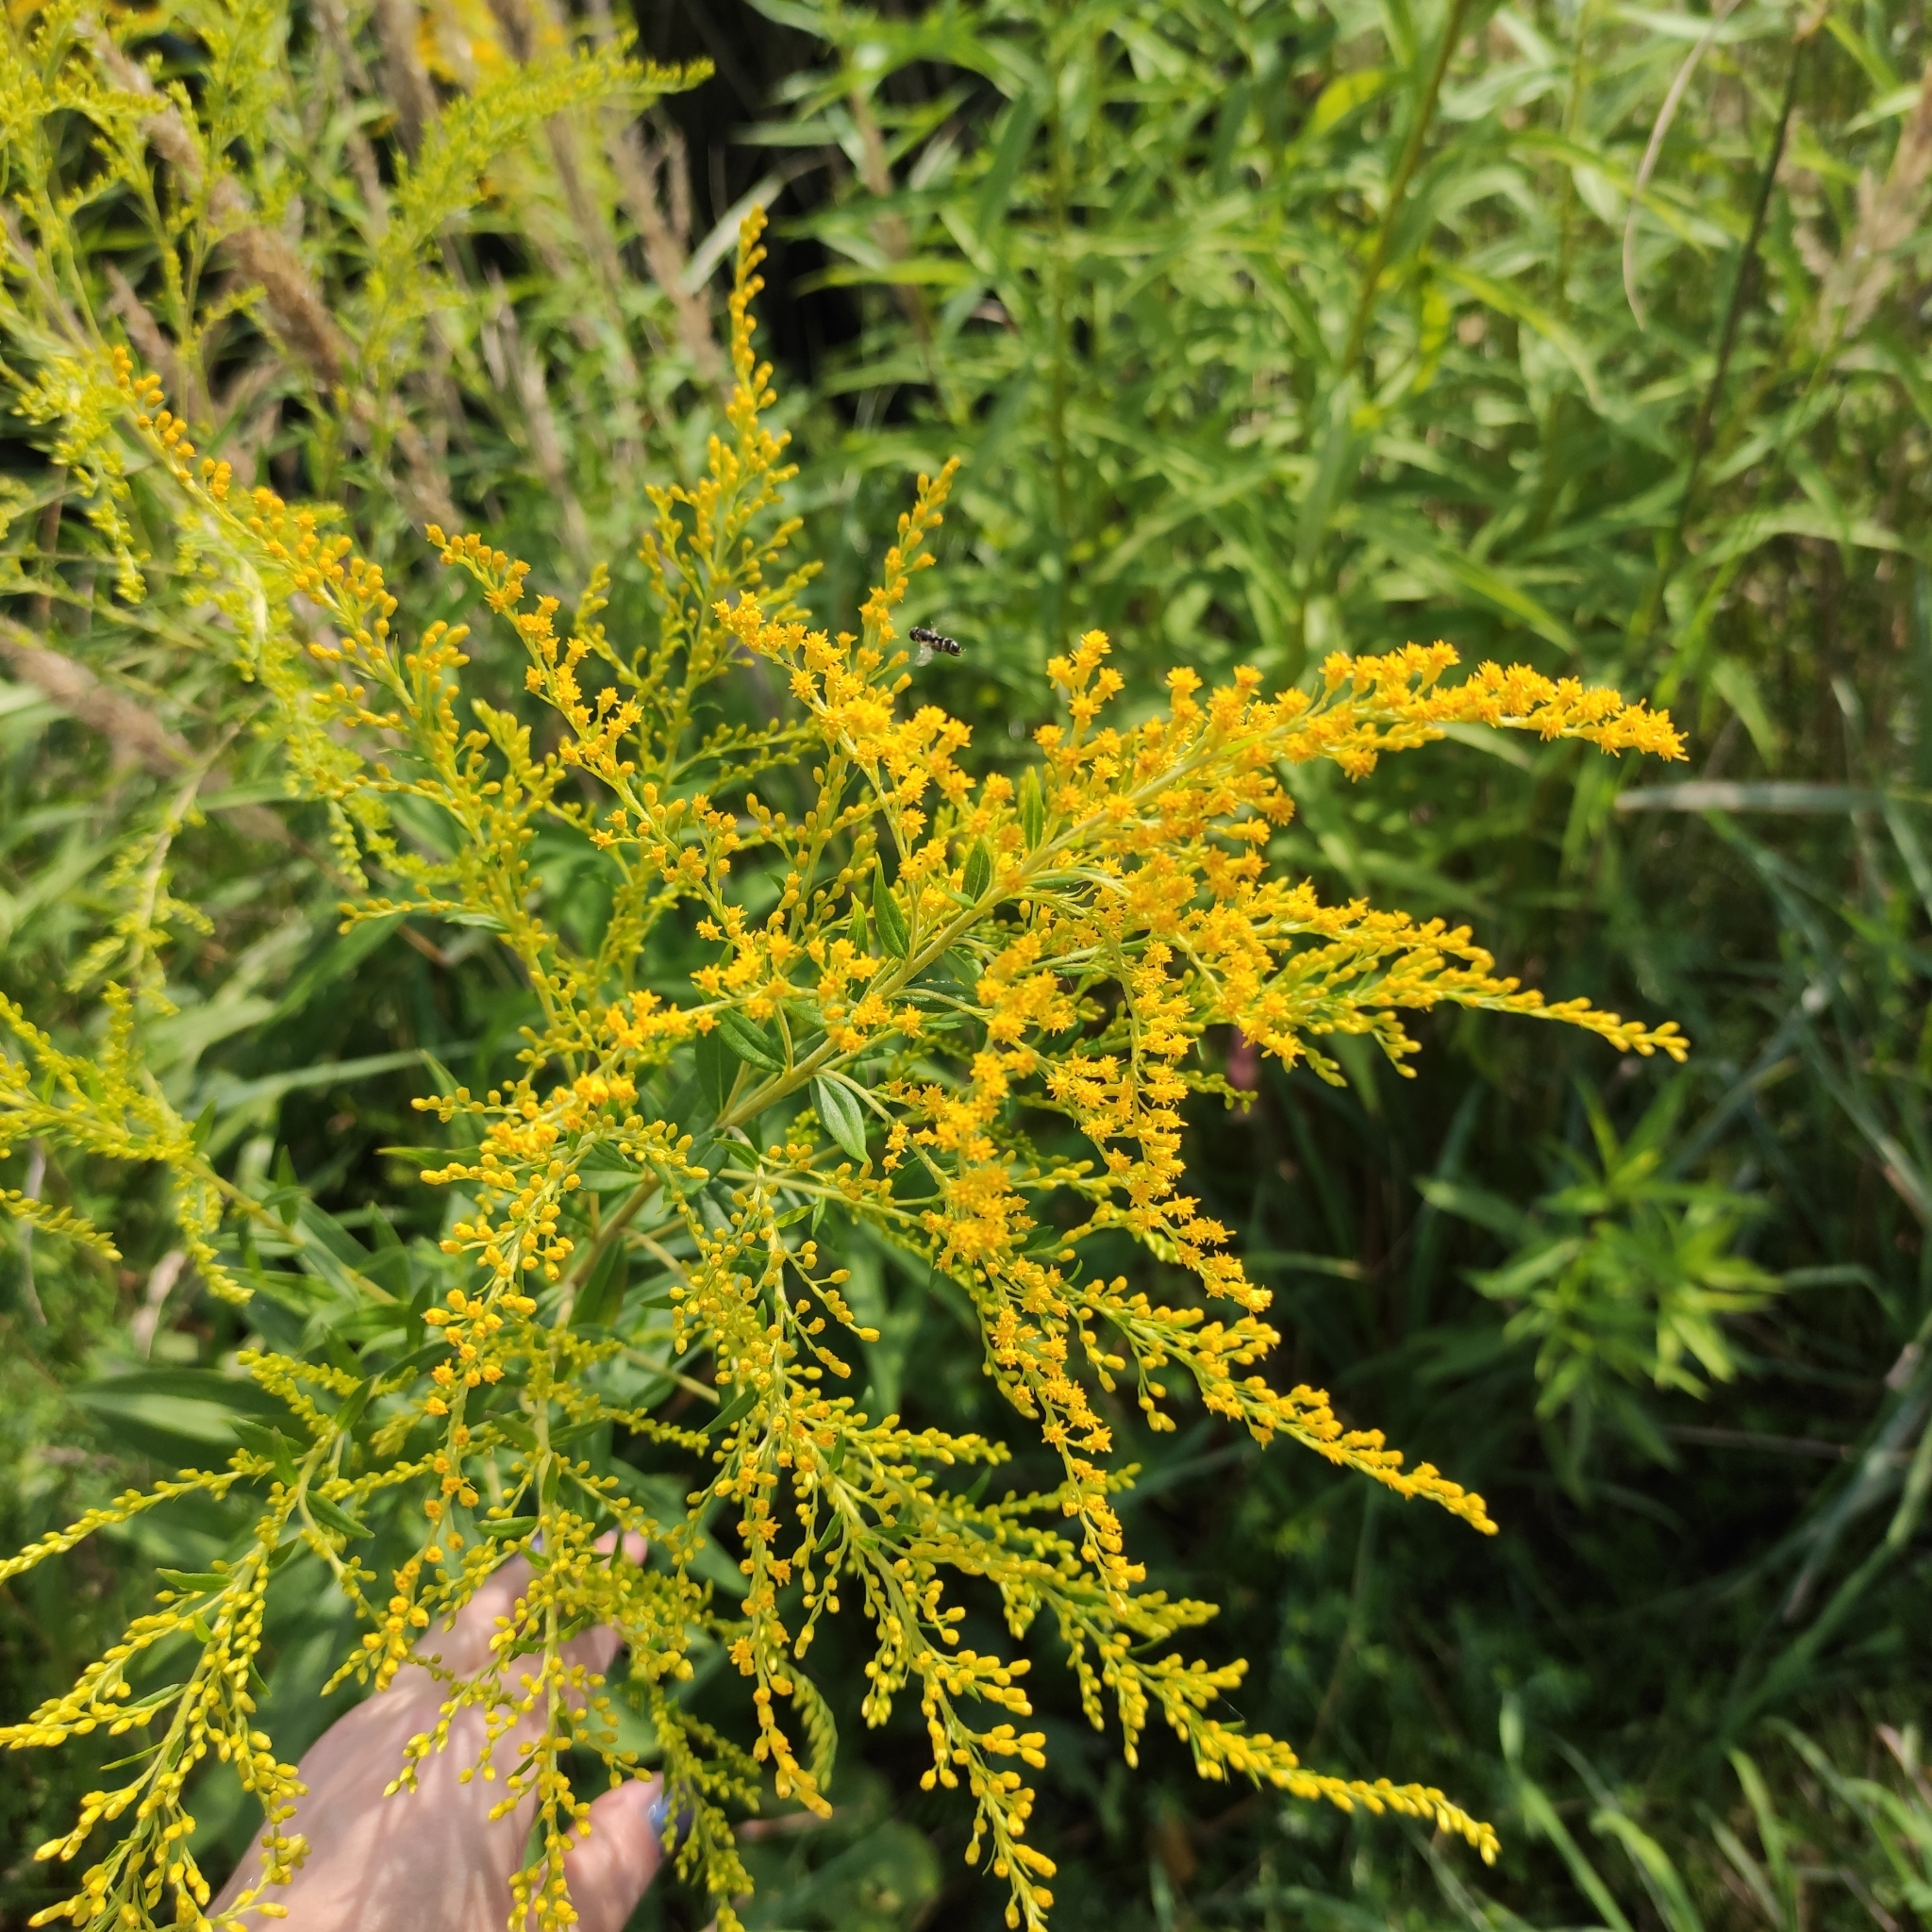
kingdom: Plantae
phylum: Tracheophyta
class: Magnoliopsida
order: Asterales
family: Asteraceae
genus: Solidago
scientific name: Solidago canadensis
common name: Canada goldenrod
